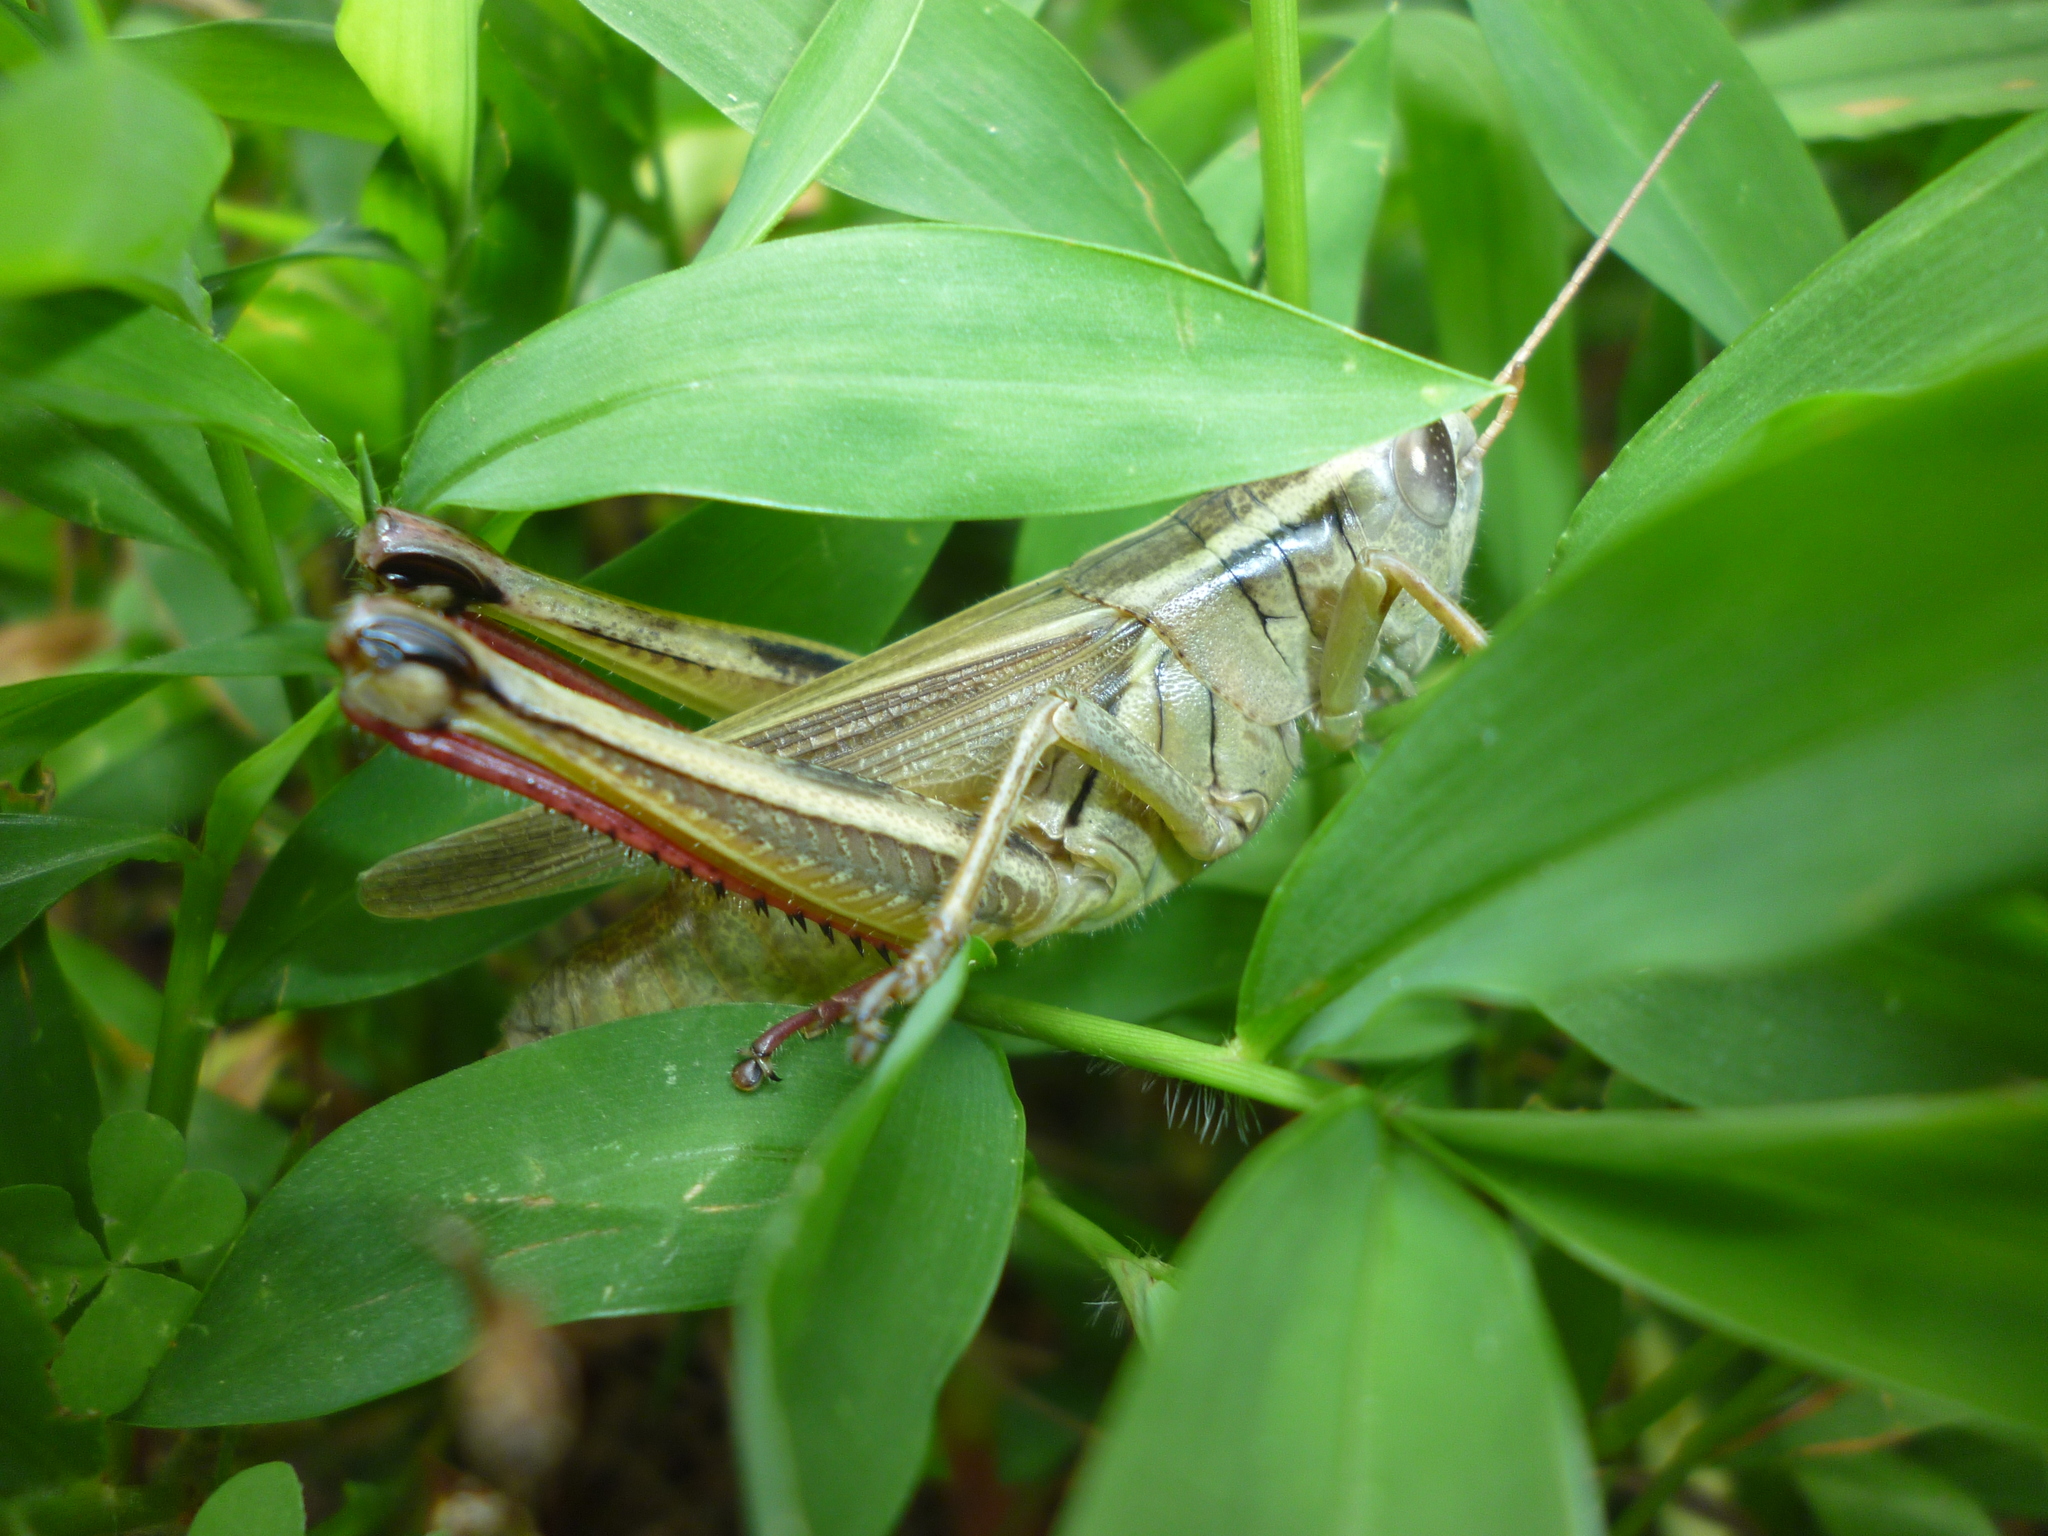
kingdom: Animalia
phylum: Arthropoda
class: Insecta
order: Orthoptera
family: Acrididae
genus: Melanoplus
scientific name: Melanoplus bivittatus
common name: Two-striped grasshopper
